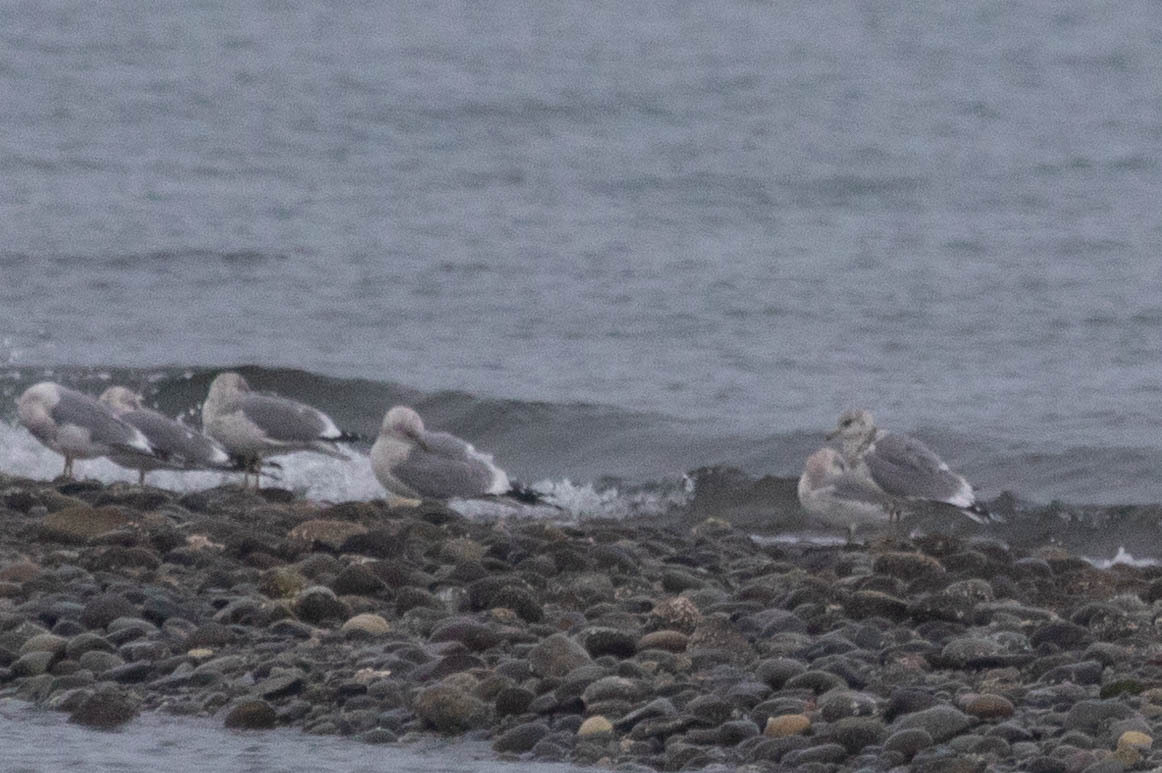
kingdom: Animalia
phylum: Chordata
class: Aves
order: Charadriiformes
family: Laridae
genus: Larus
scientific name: Larus brachyrhynchus
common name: Short-billed gull
